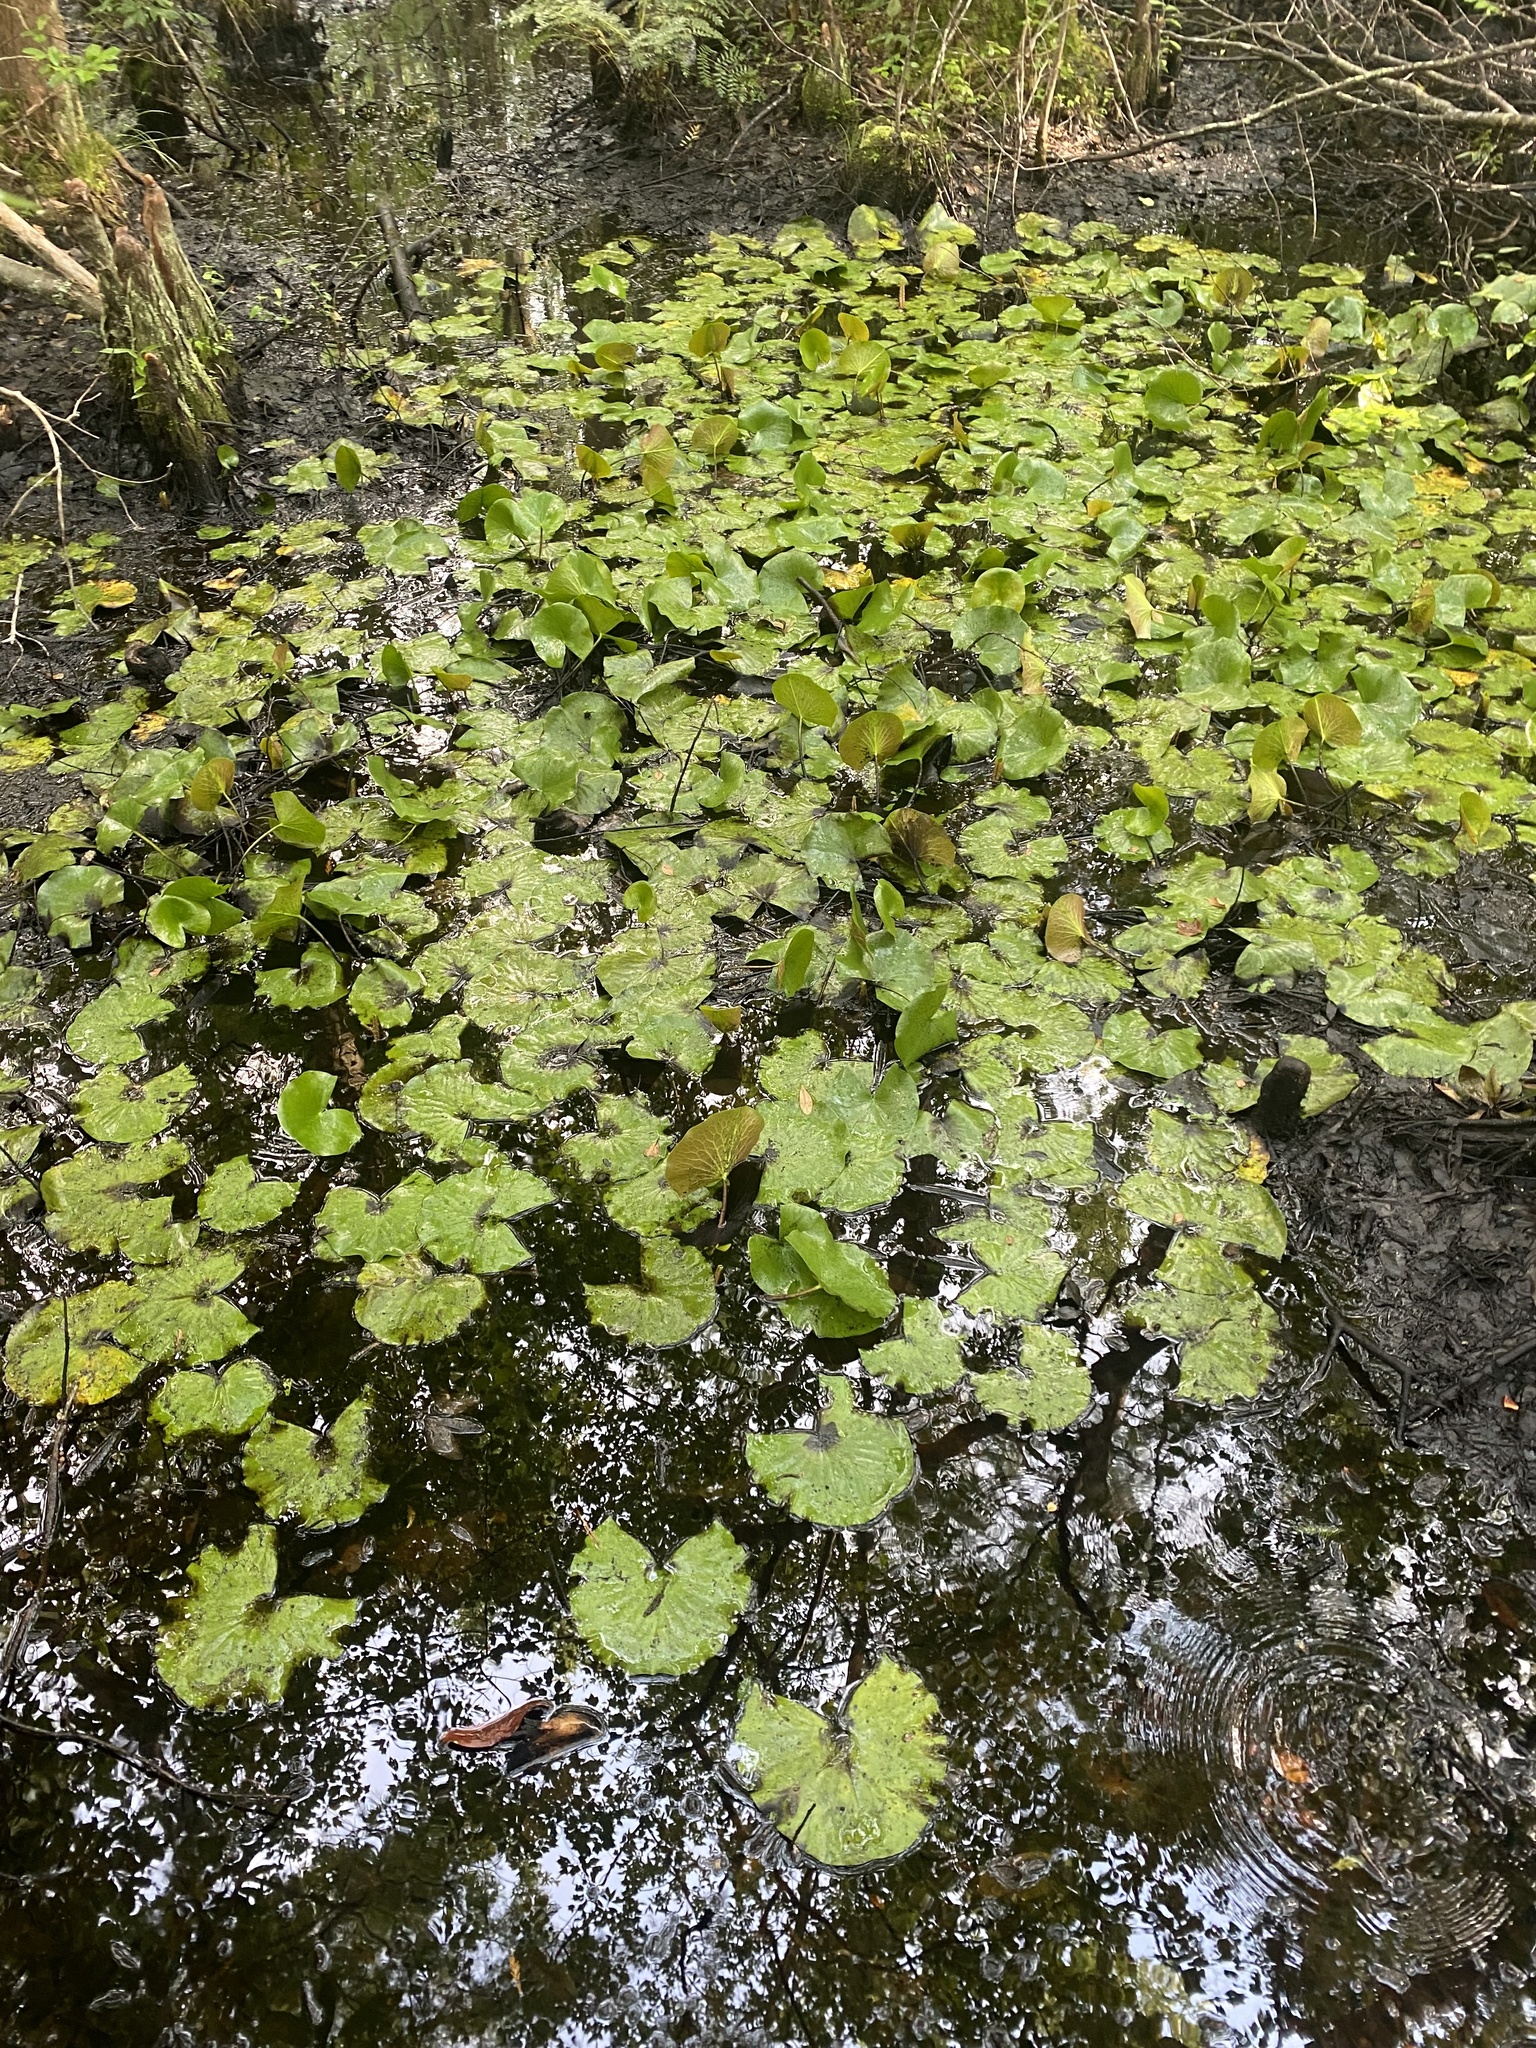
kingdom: Plantae
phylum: Tracheophyta
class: Magnoliopsida
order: Nymphaeales
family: Nymphaeaceae
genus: Nymphaea
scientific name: Nymphaea odorata
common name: Fragrant water-lily
